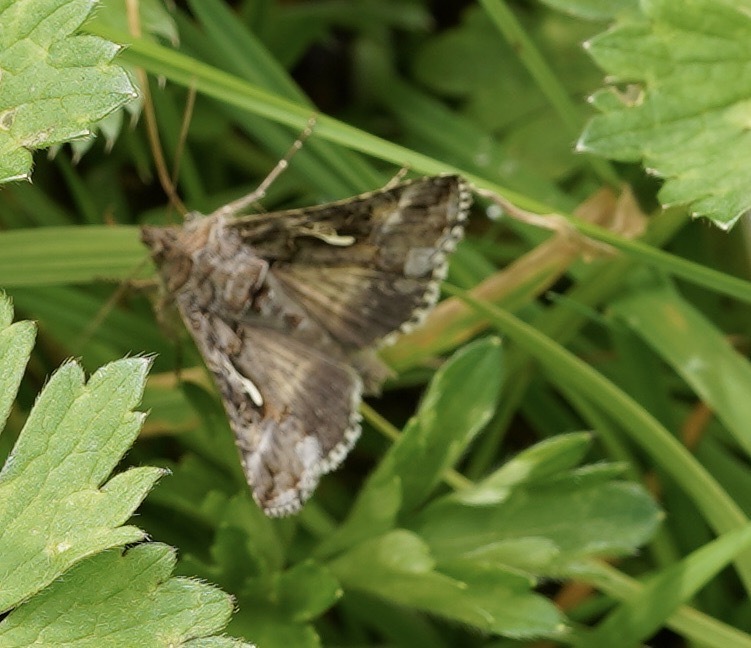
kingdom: Animalia
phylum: Arthropoda
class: Insecta
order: Lepidoptera
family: Noctuidae
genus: Autographa
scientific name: Autographa gamma
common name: Silver y
